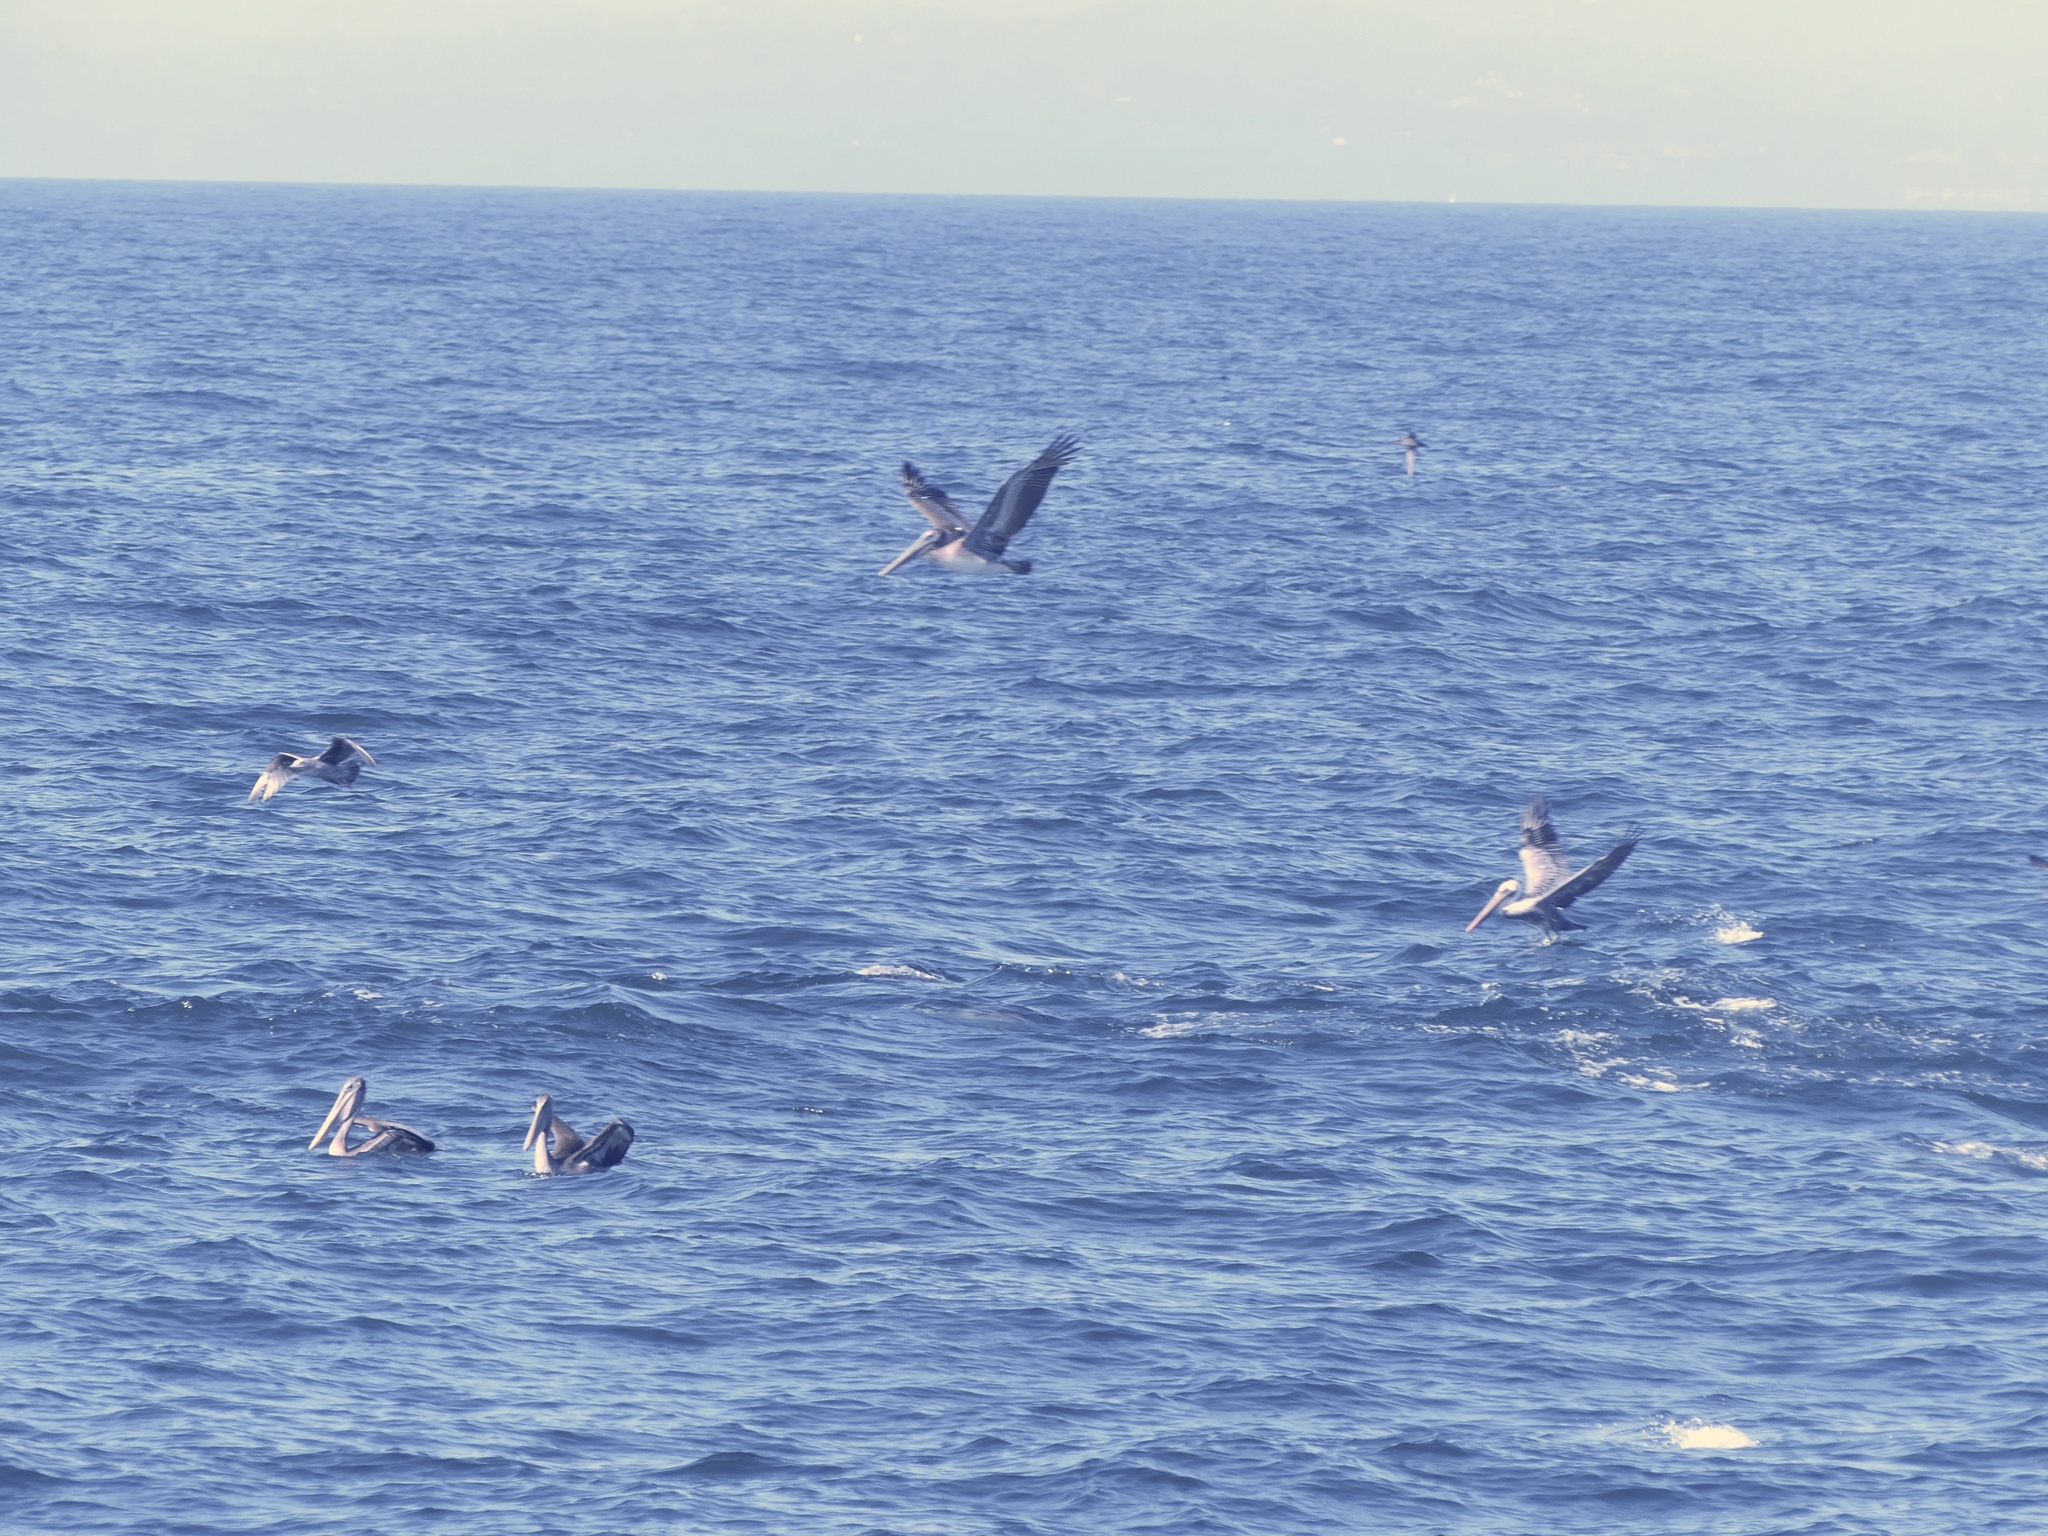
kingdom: Animalia
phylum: Chordata
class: Mammalia
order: Cetacea
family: Delphinidae
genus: Delphinus
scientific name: Delphinus delphis
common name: Common dolphin
